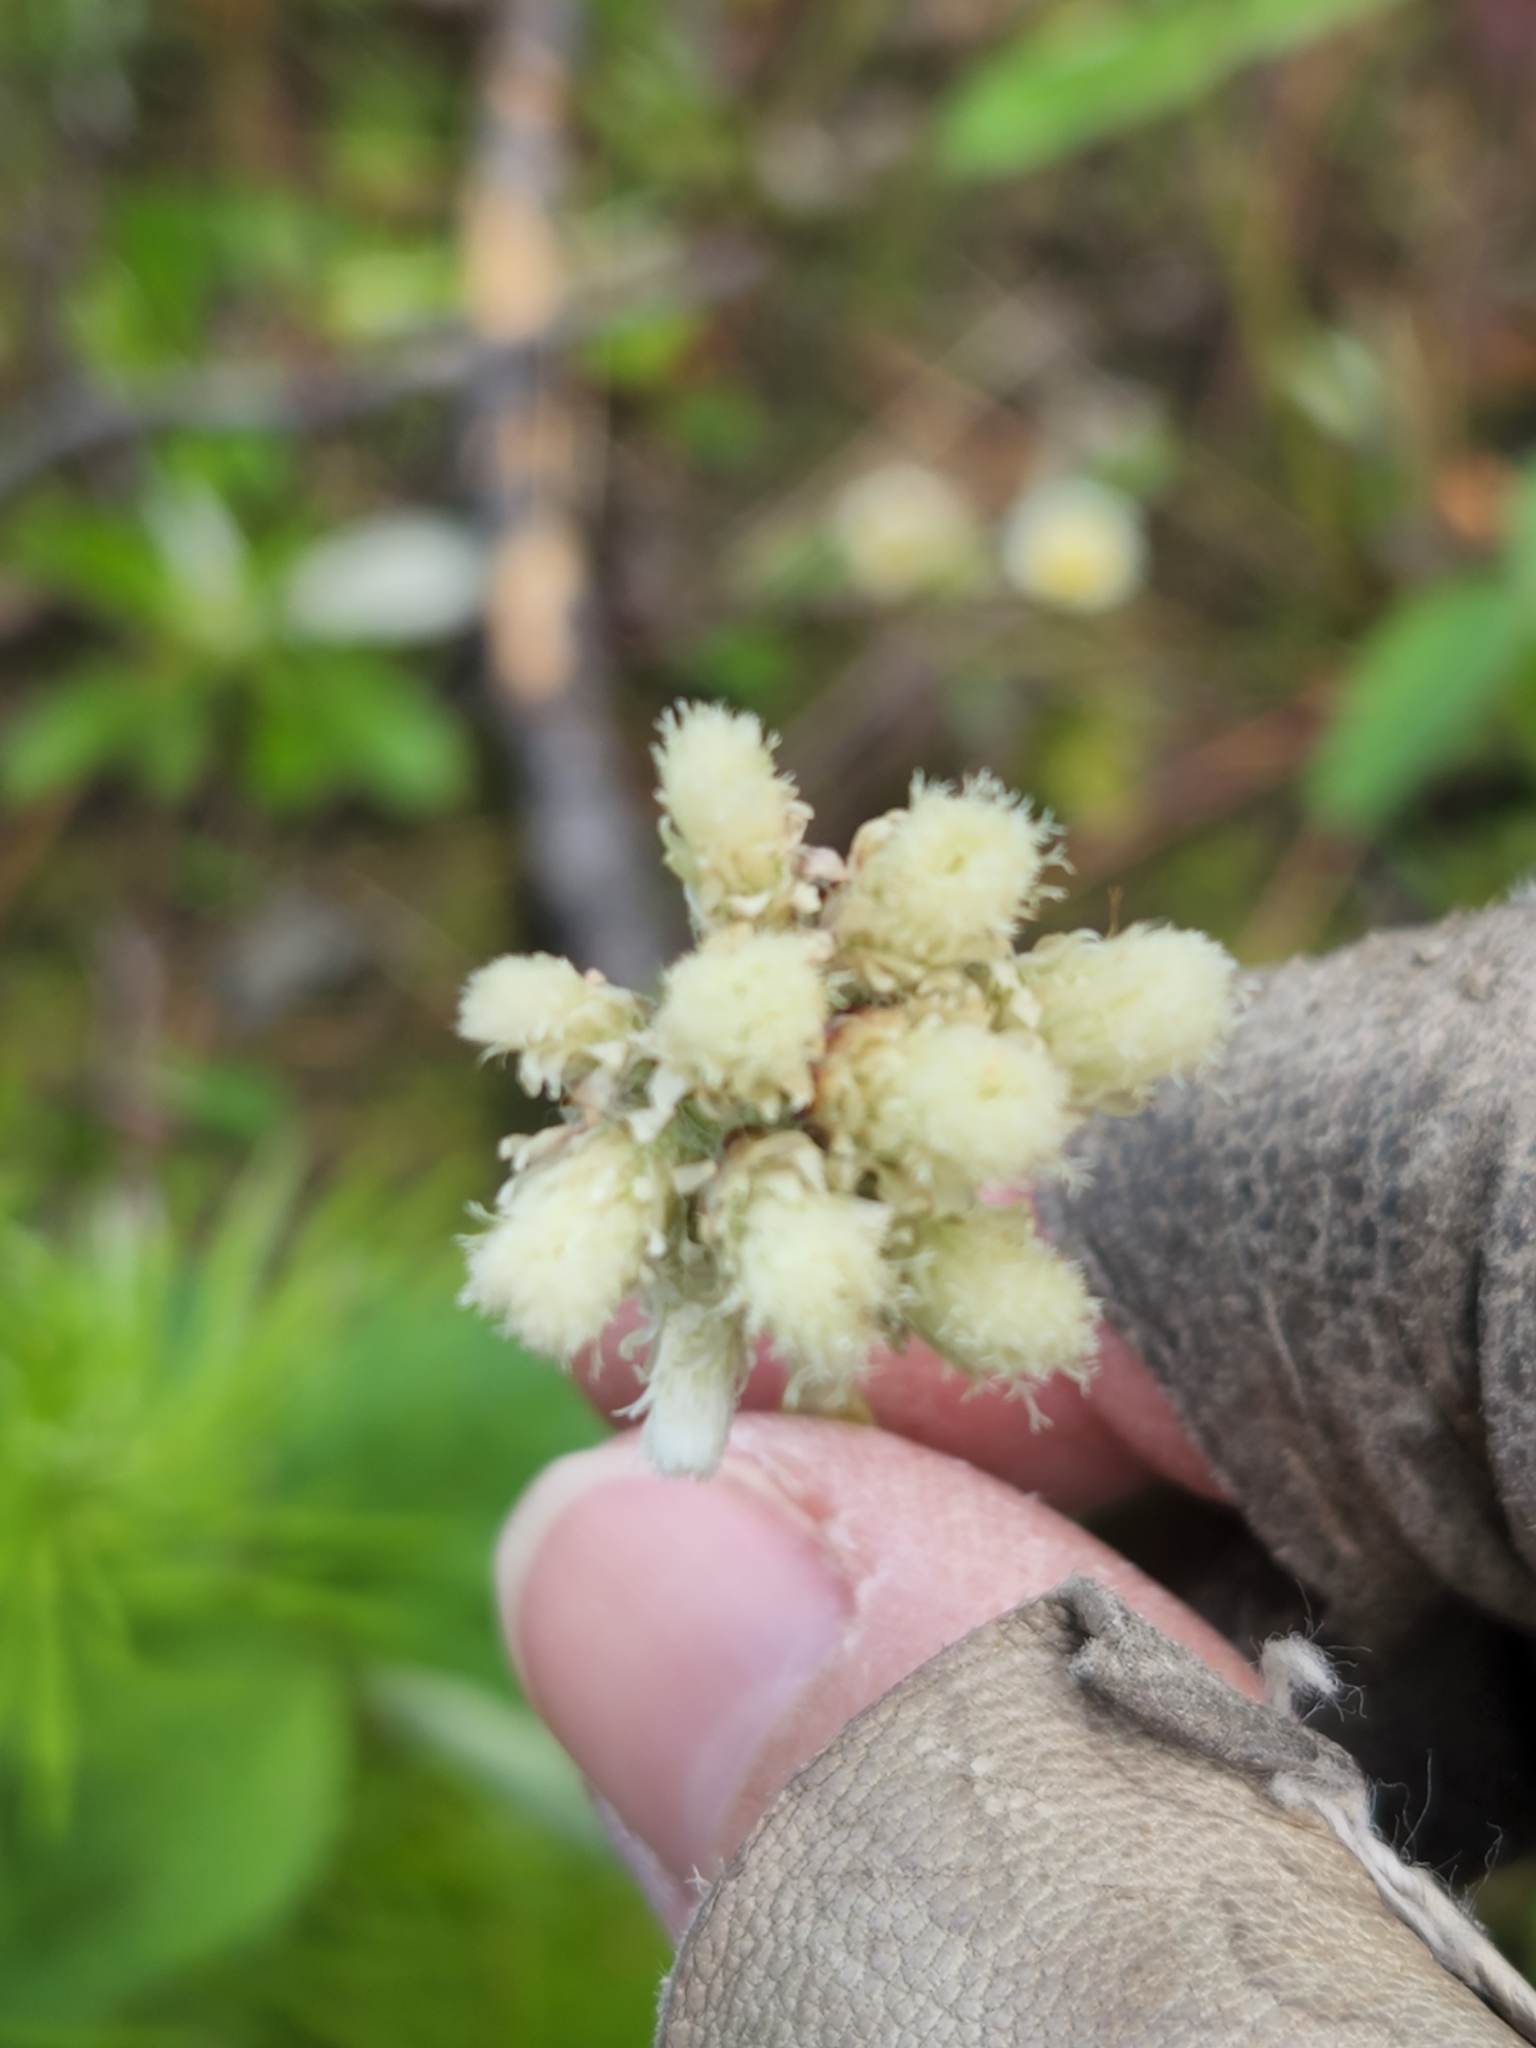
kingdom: Plantae
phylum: Tracheophyta
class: Magnoliopsida
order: Asterales
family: Asteraceae
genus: Antennaria
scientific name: Antennaria howellii
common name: Howell's pussytoes
